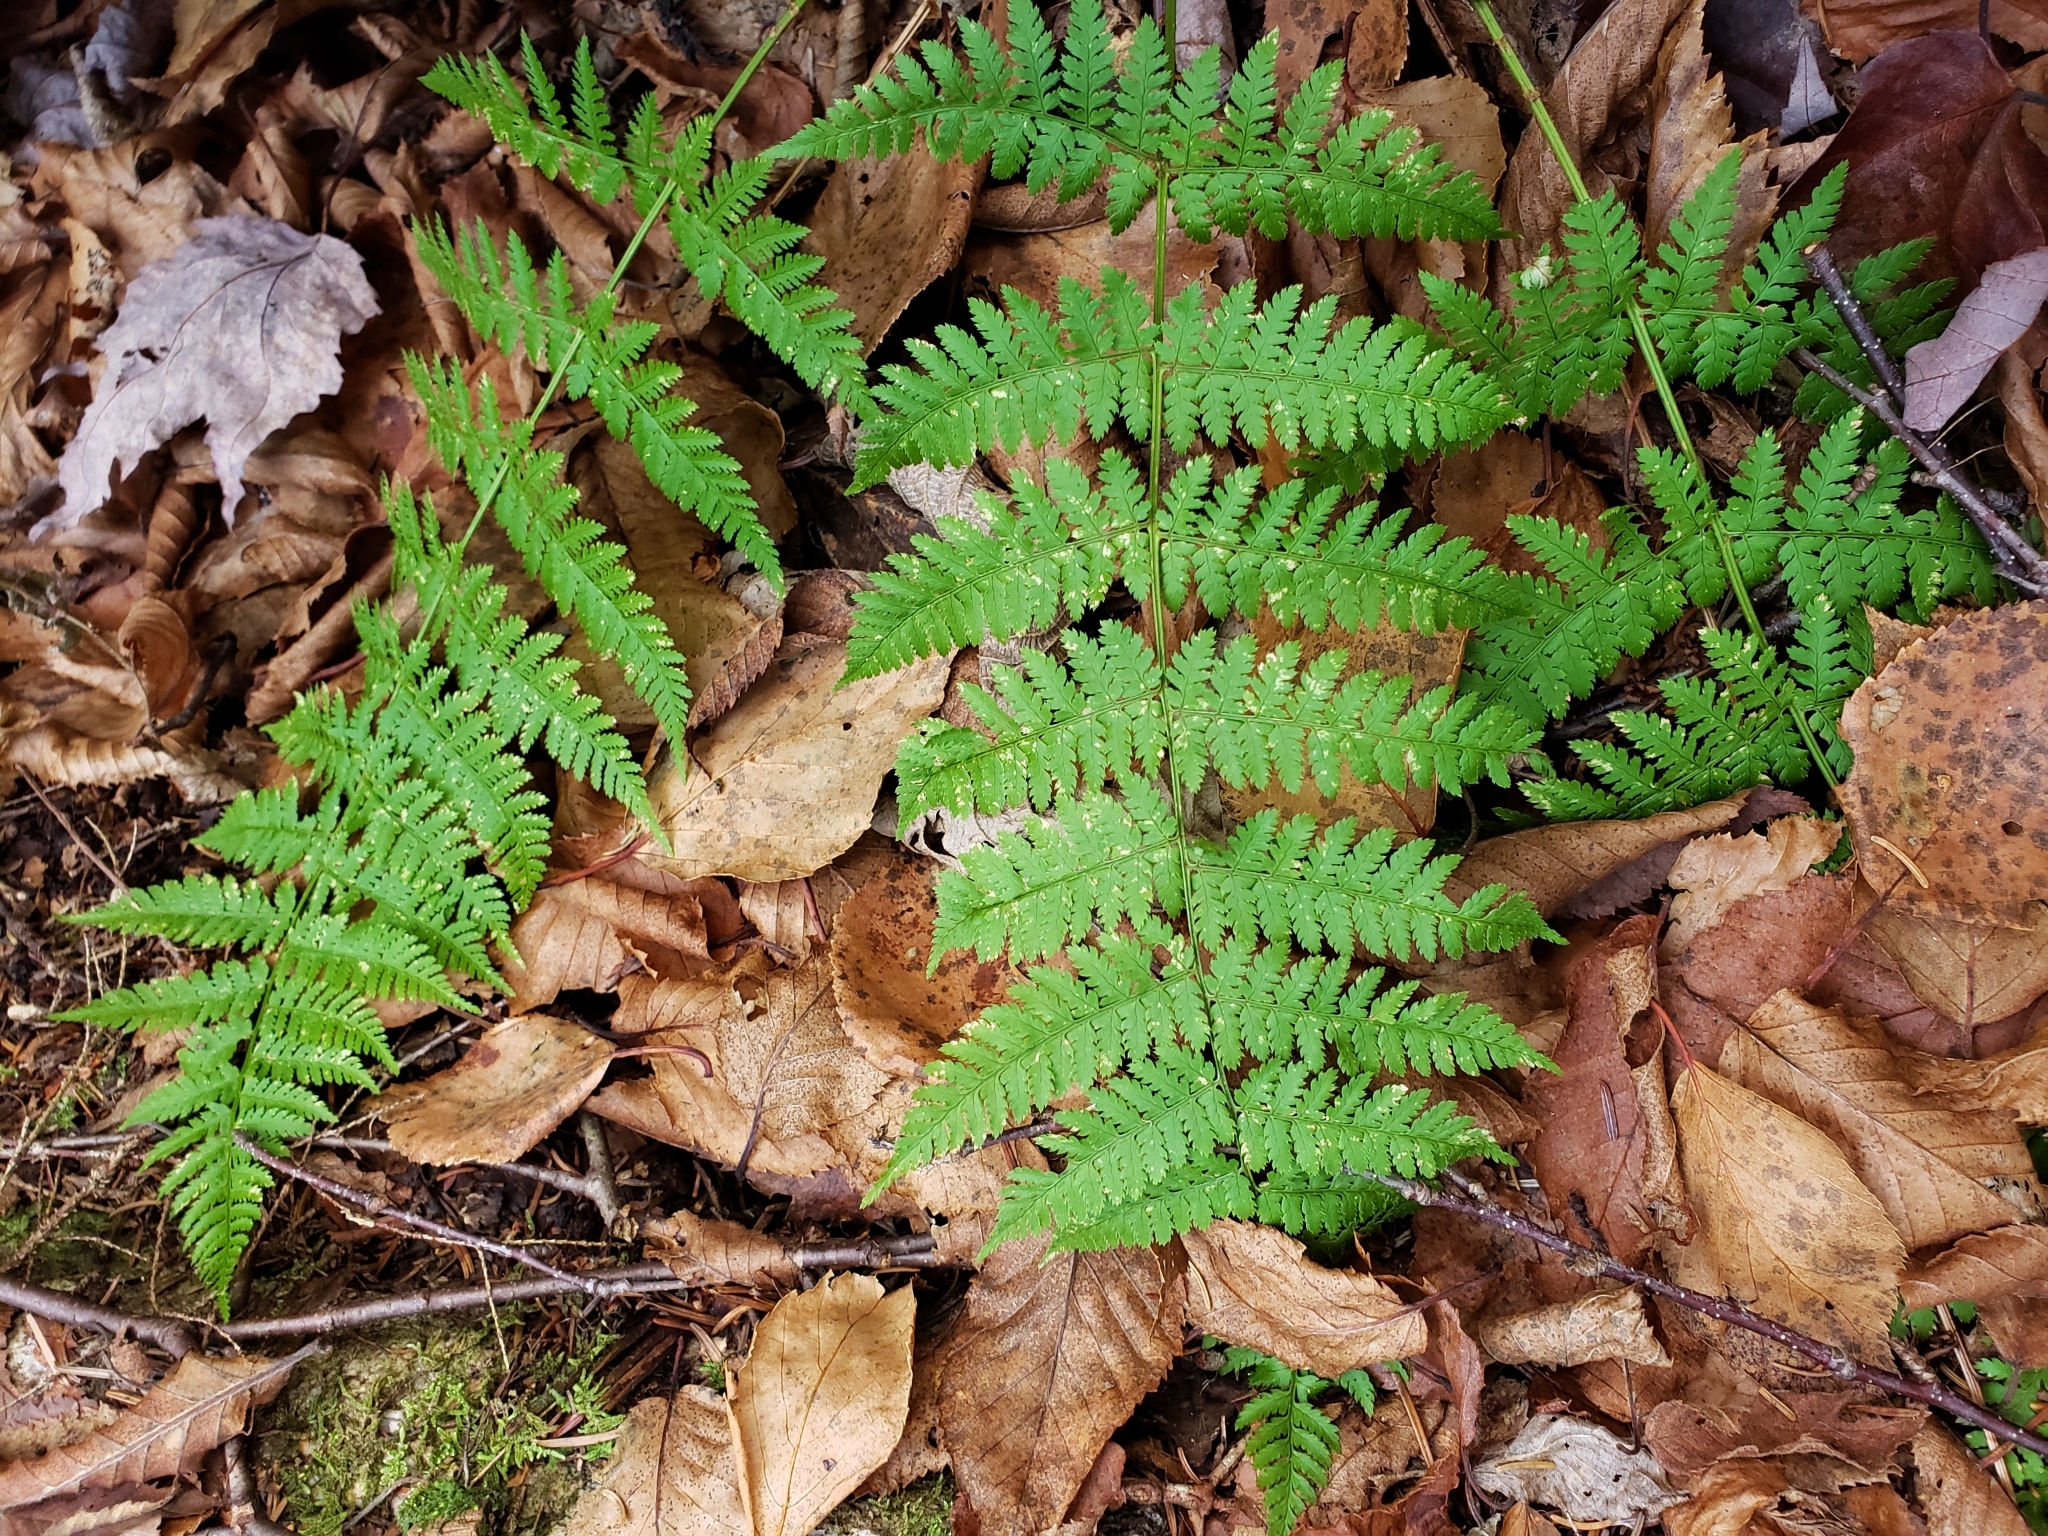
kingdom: Plantae
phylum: Tracheophyta
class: Polypodiopsida
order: Polypodiales
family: Dryopteridaceae
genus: Dryopteris
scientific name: Dryopteris intermedia
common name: Evergreen wood fern
